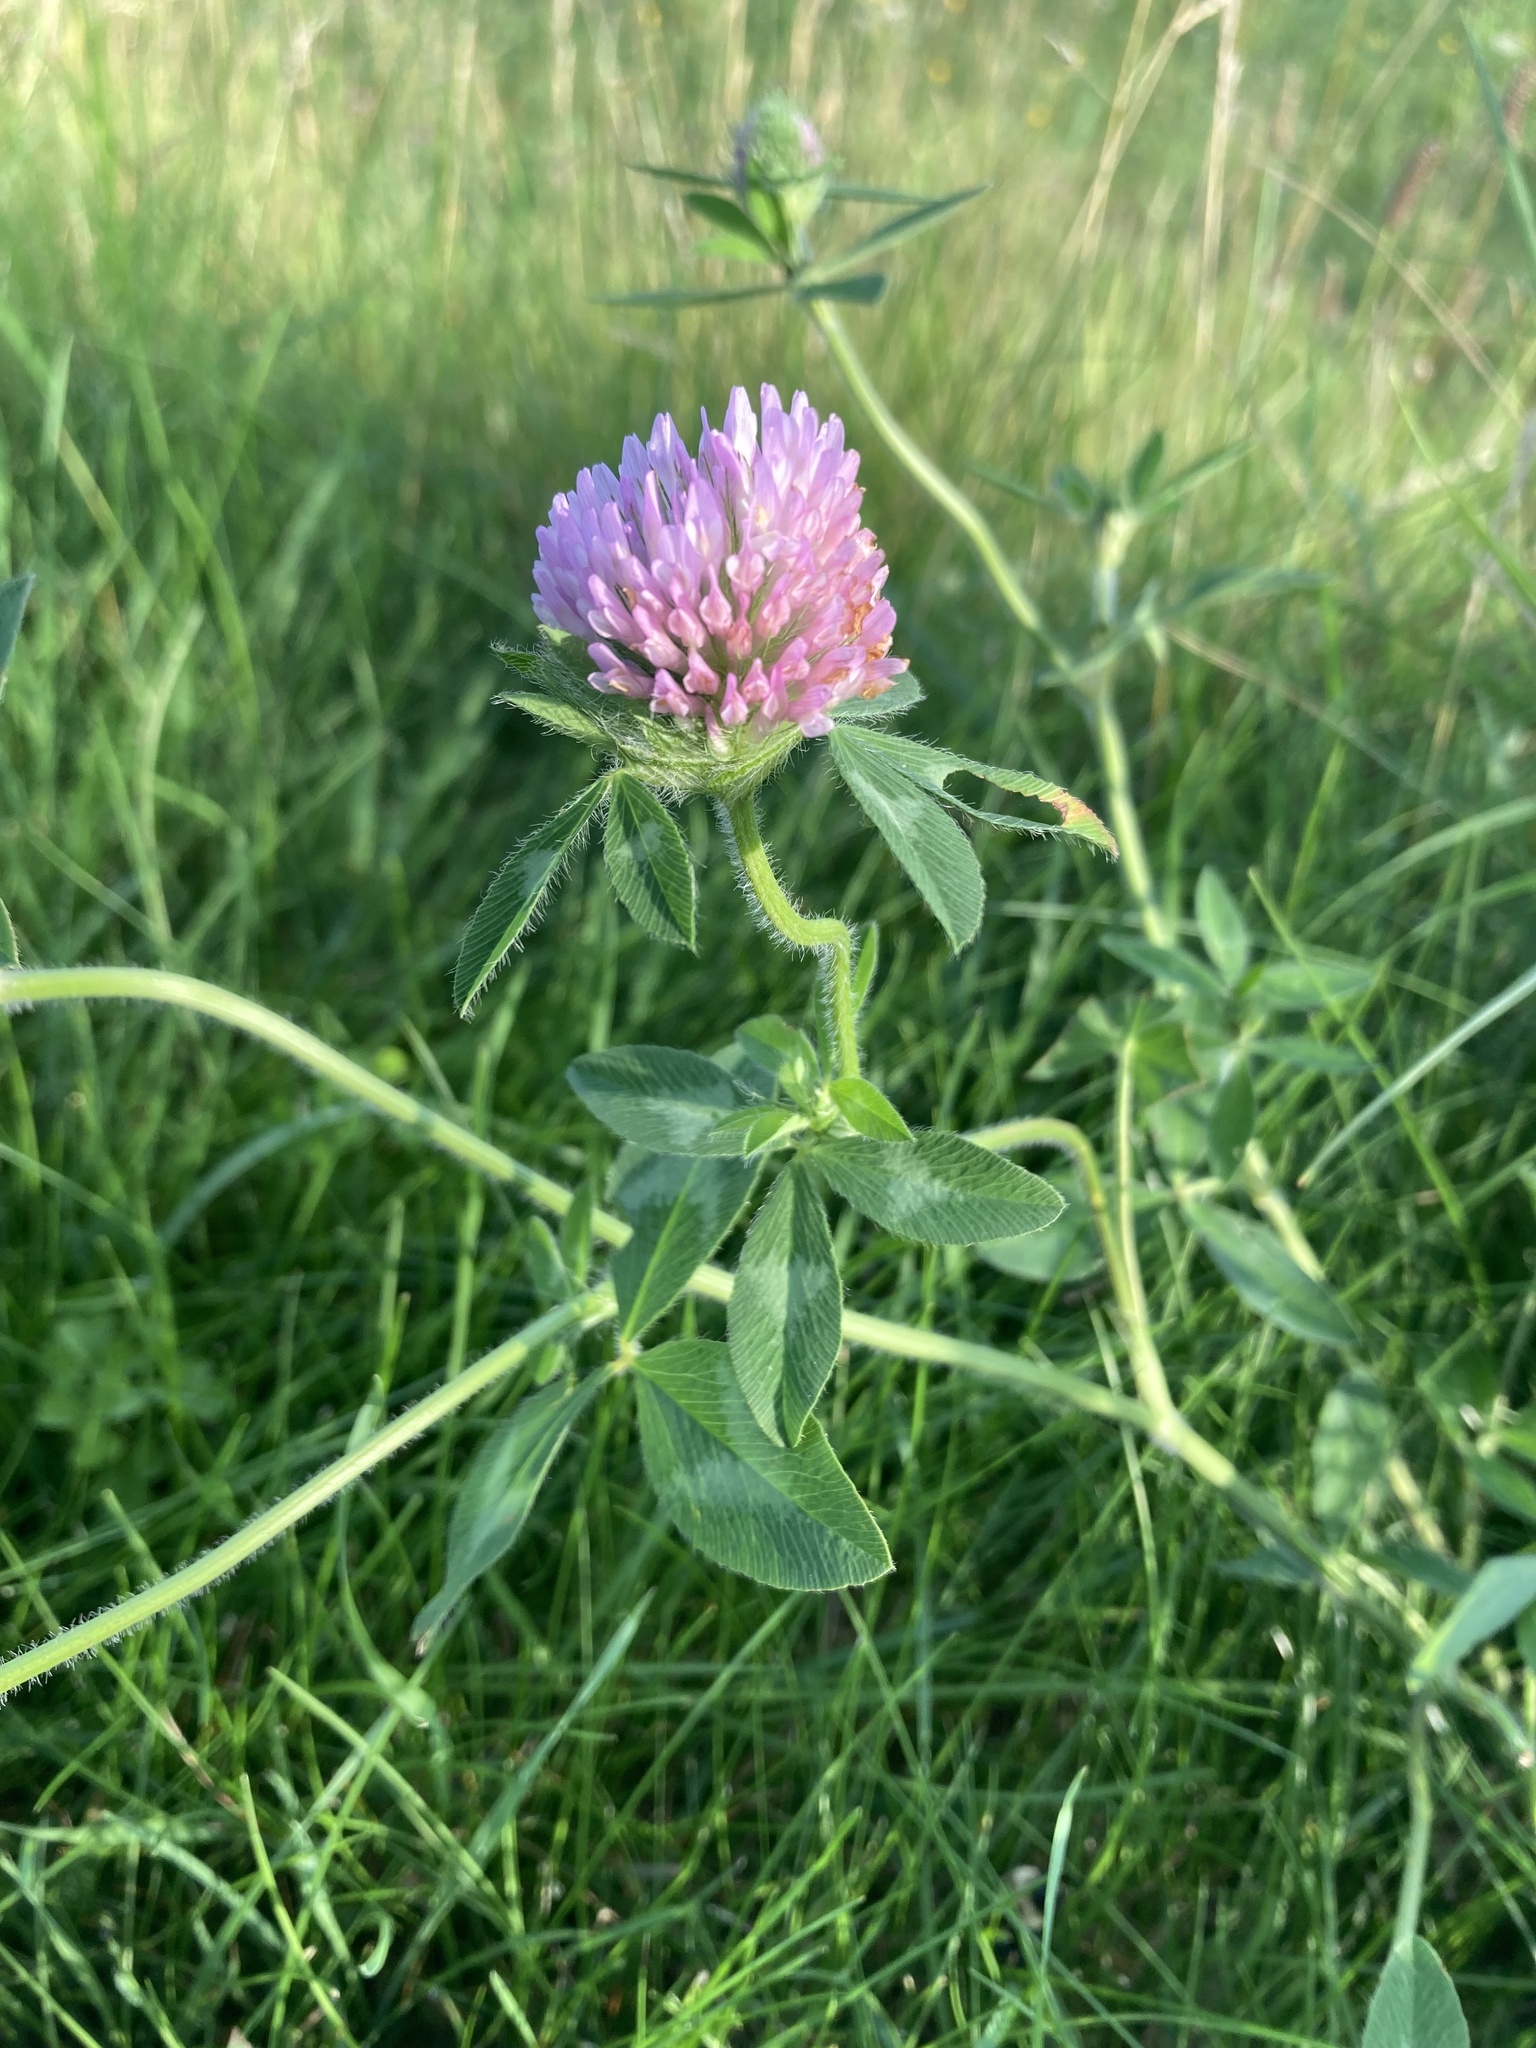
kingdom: Plantae
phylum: Tracheophyta
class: Magnoliopsida
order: Fabales
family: Fabaceae
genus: Trifolium
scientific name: Trifolium pratense
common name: Red clover
